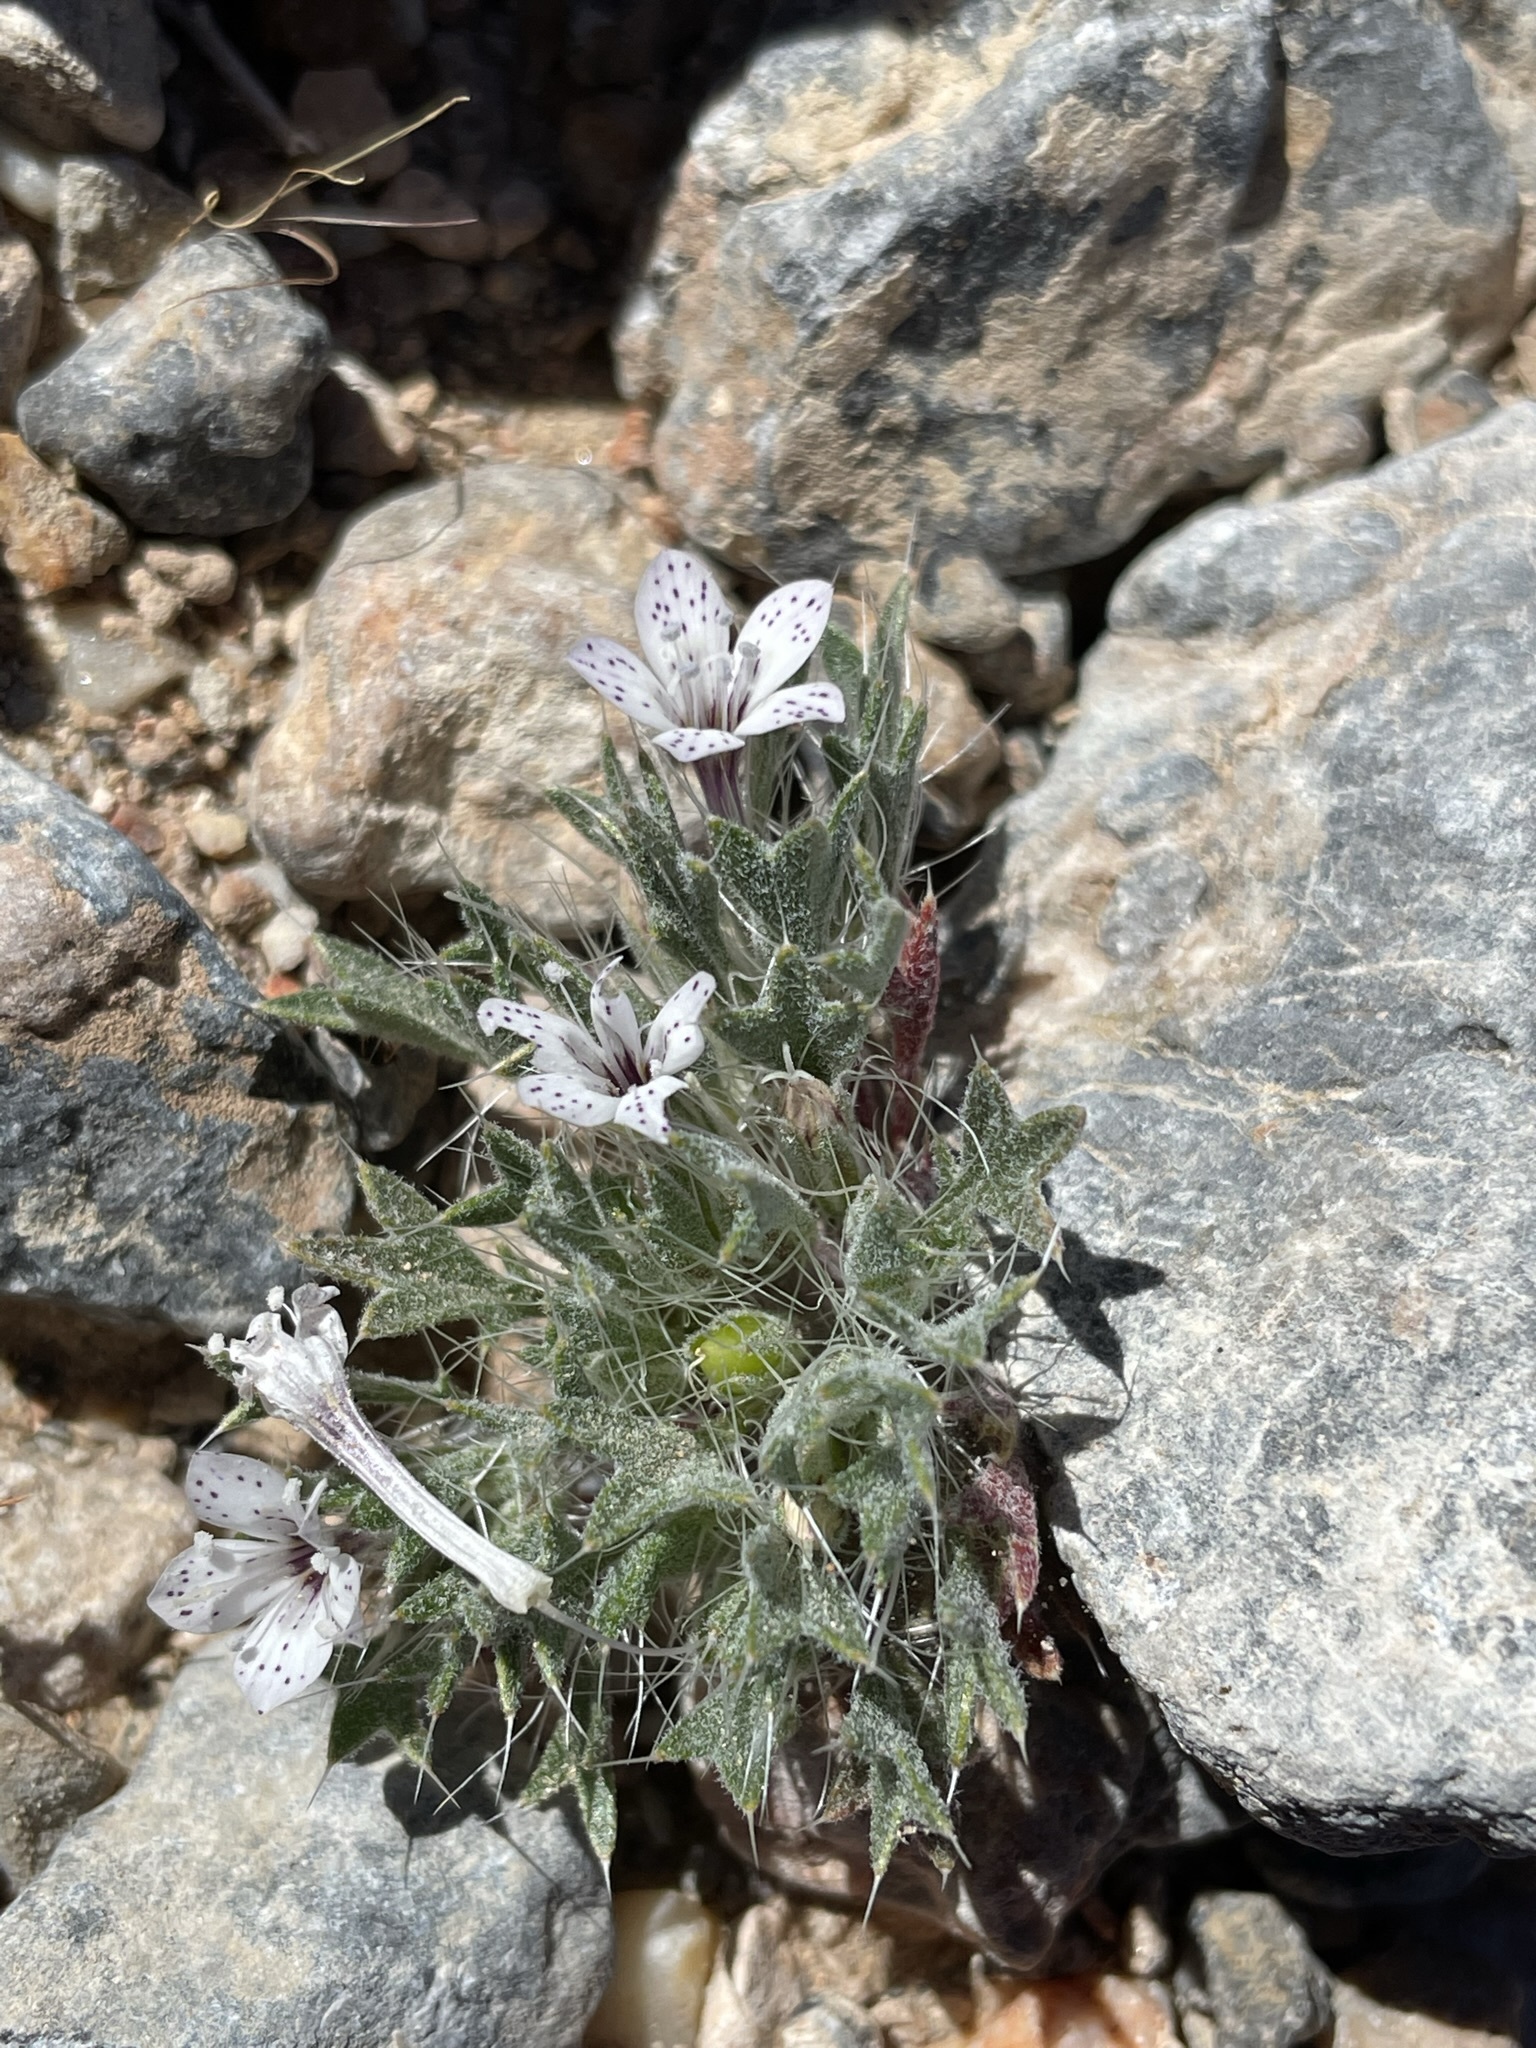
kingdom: Plantae
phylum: Tracheophyta
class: Magnoliopsida
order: Ericales
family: Polemoniaceae
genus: Langloisia
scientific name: Langloisia setosissima
